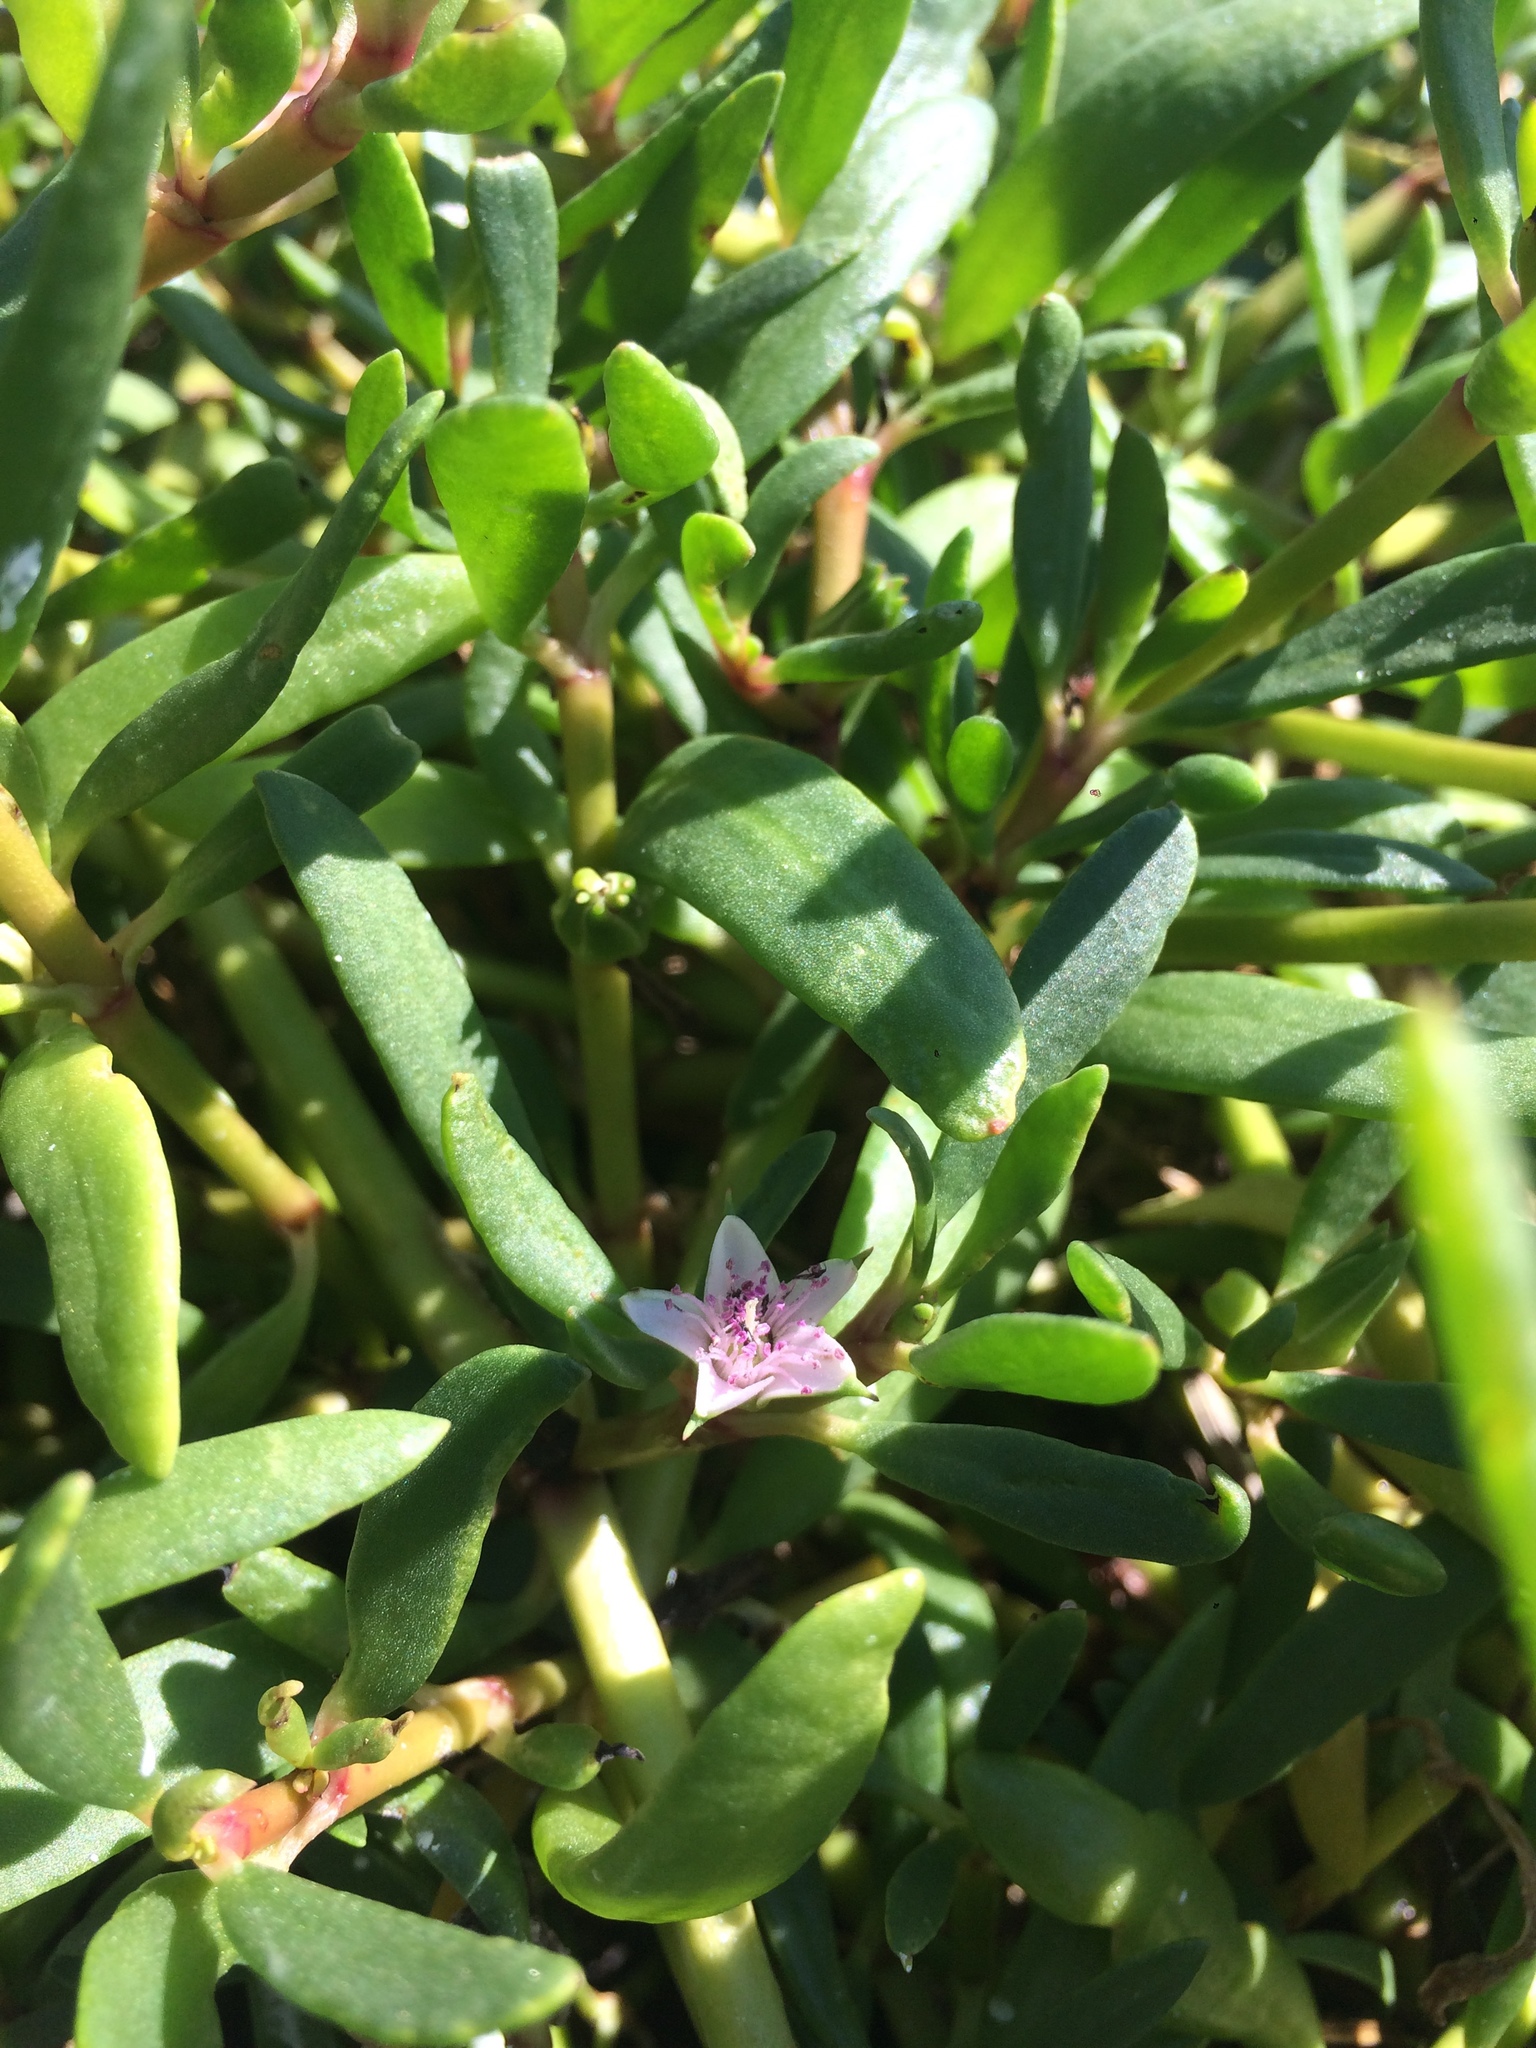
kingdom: Plantae
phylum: Tracheophyta
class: Magnoliopsida
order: Caryophyllales
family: Aizoaceae
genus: Sesuvium
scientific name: Sesuvium portulacastrum
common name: Sea-purslane
